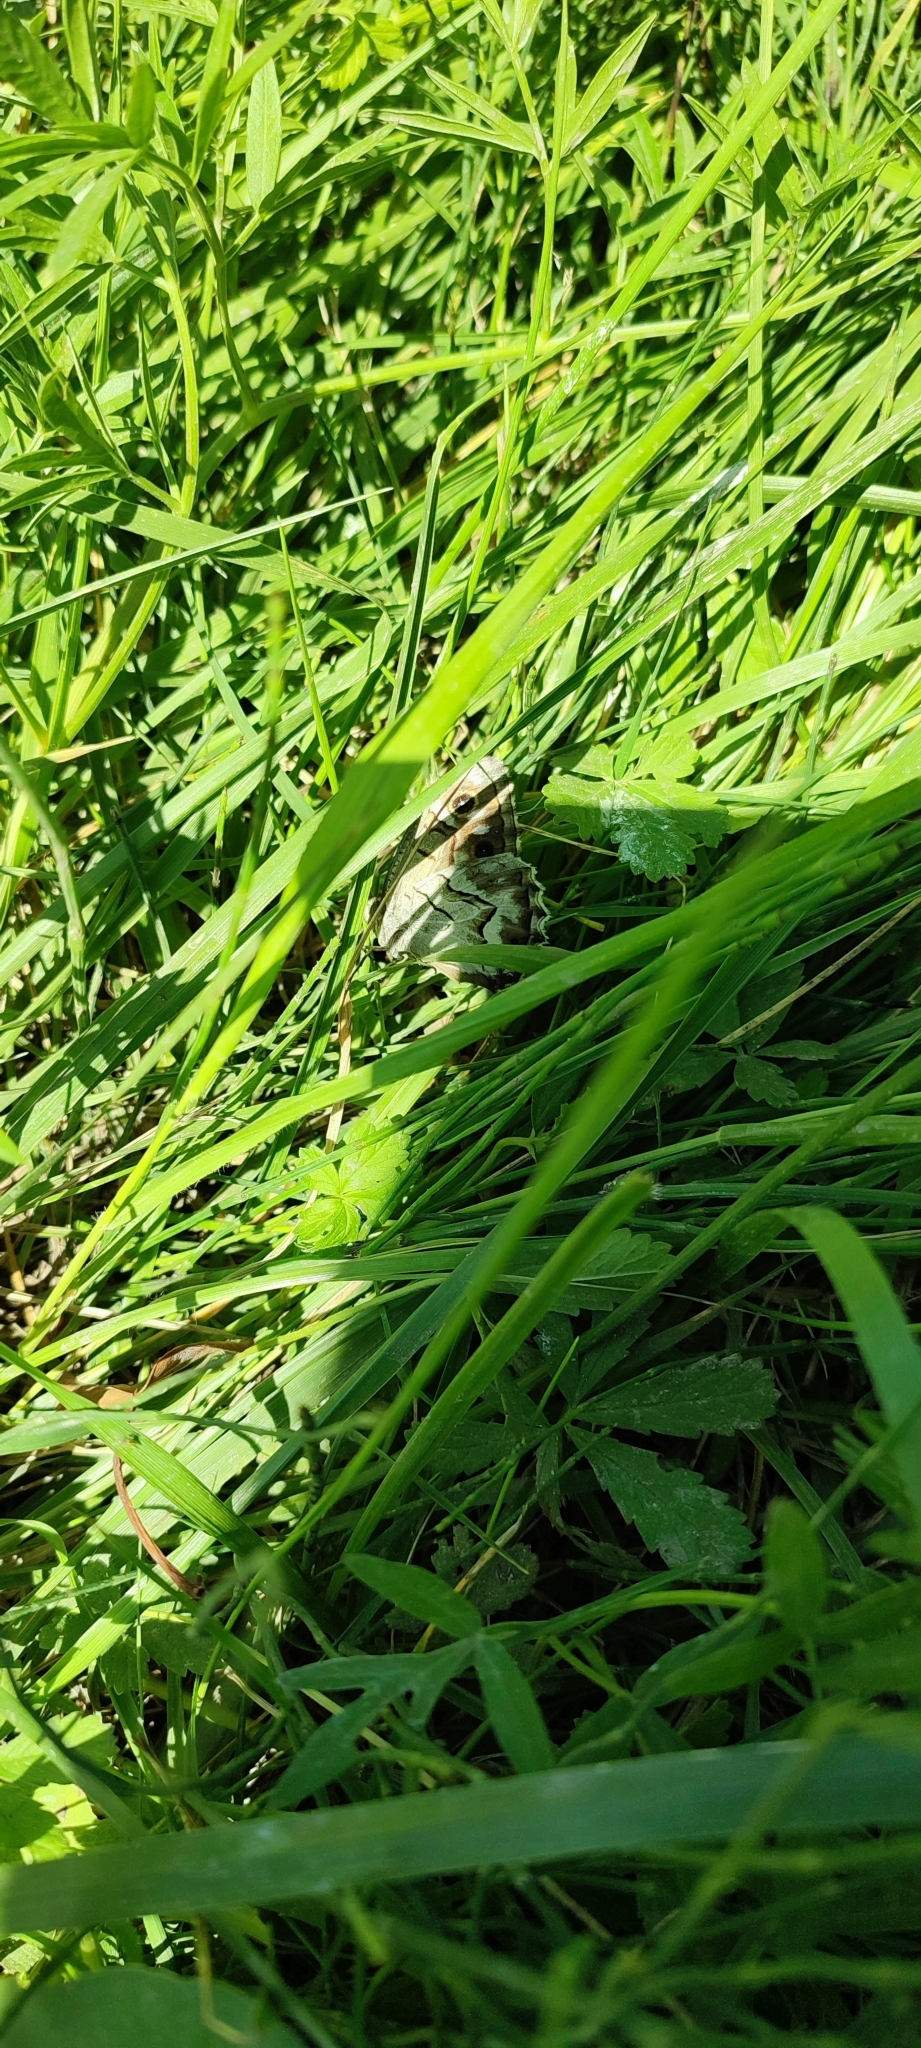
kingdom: Animalia
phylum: Arthropoda
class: Insecta
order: Lepidoptera
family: Nymphalidae
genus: Hipparchia
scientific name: Hipparchia fidia
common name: Striped grayling
